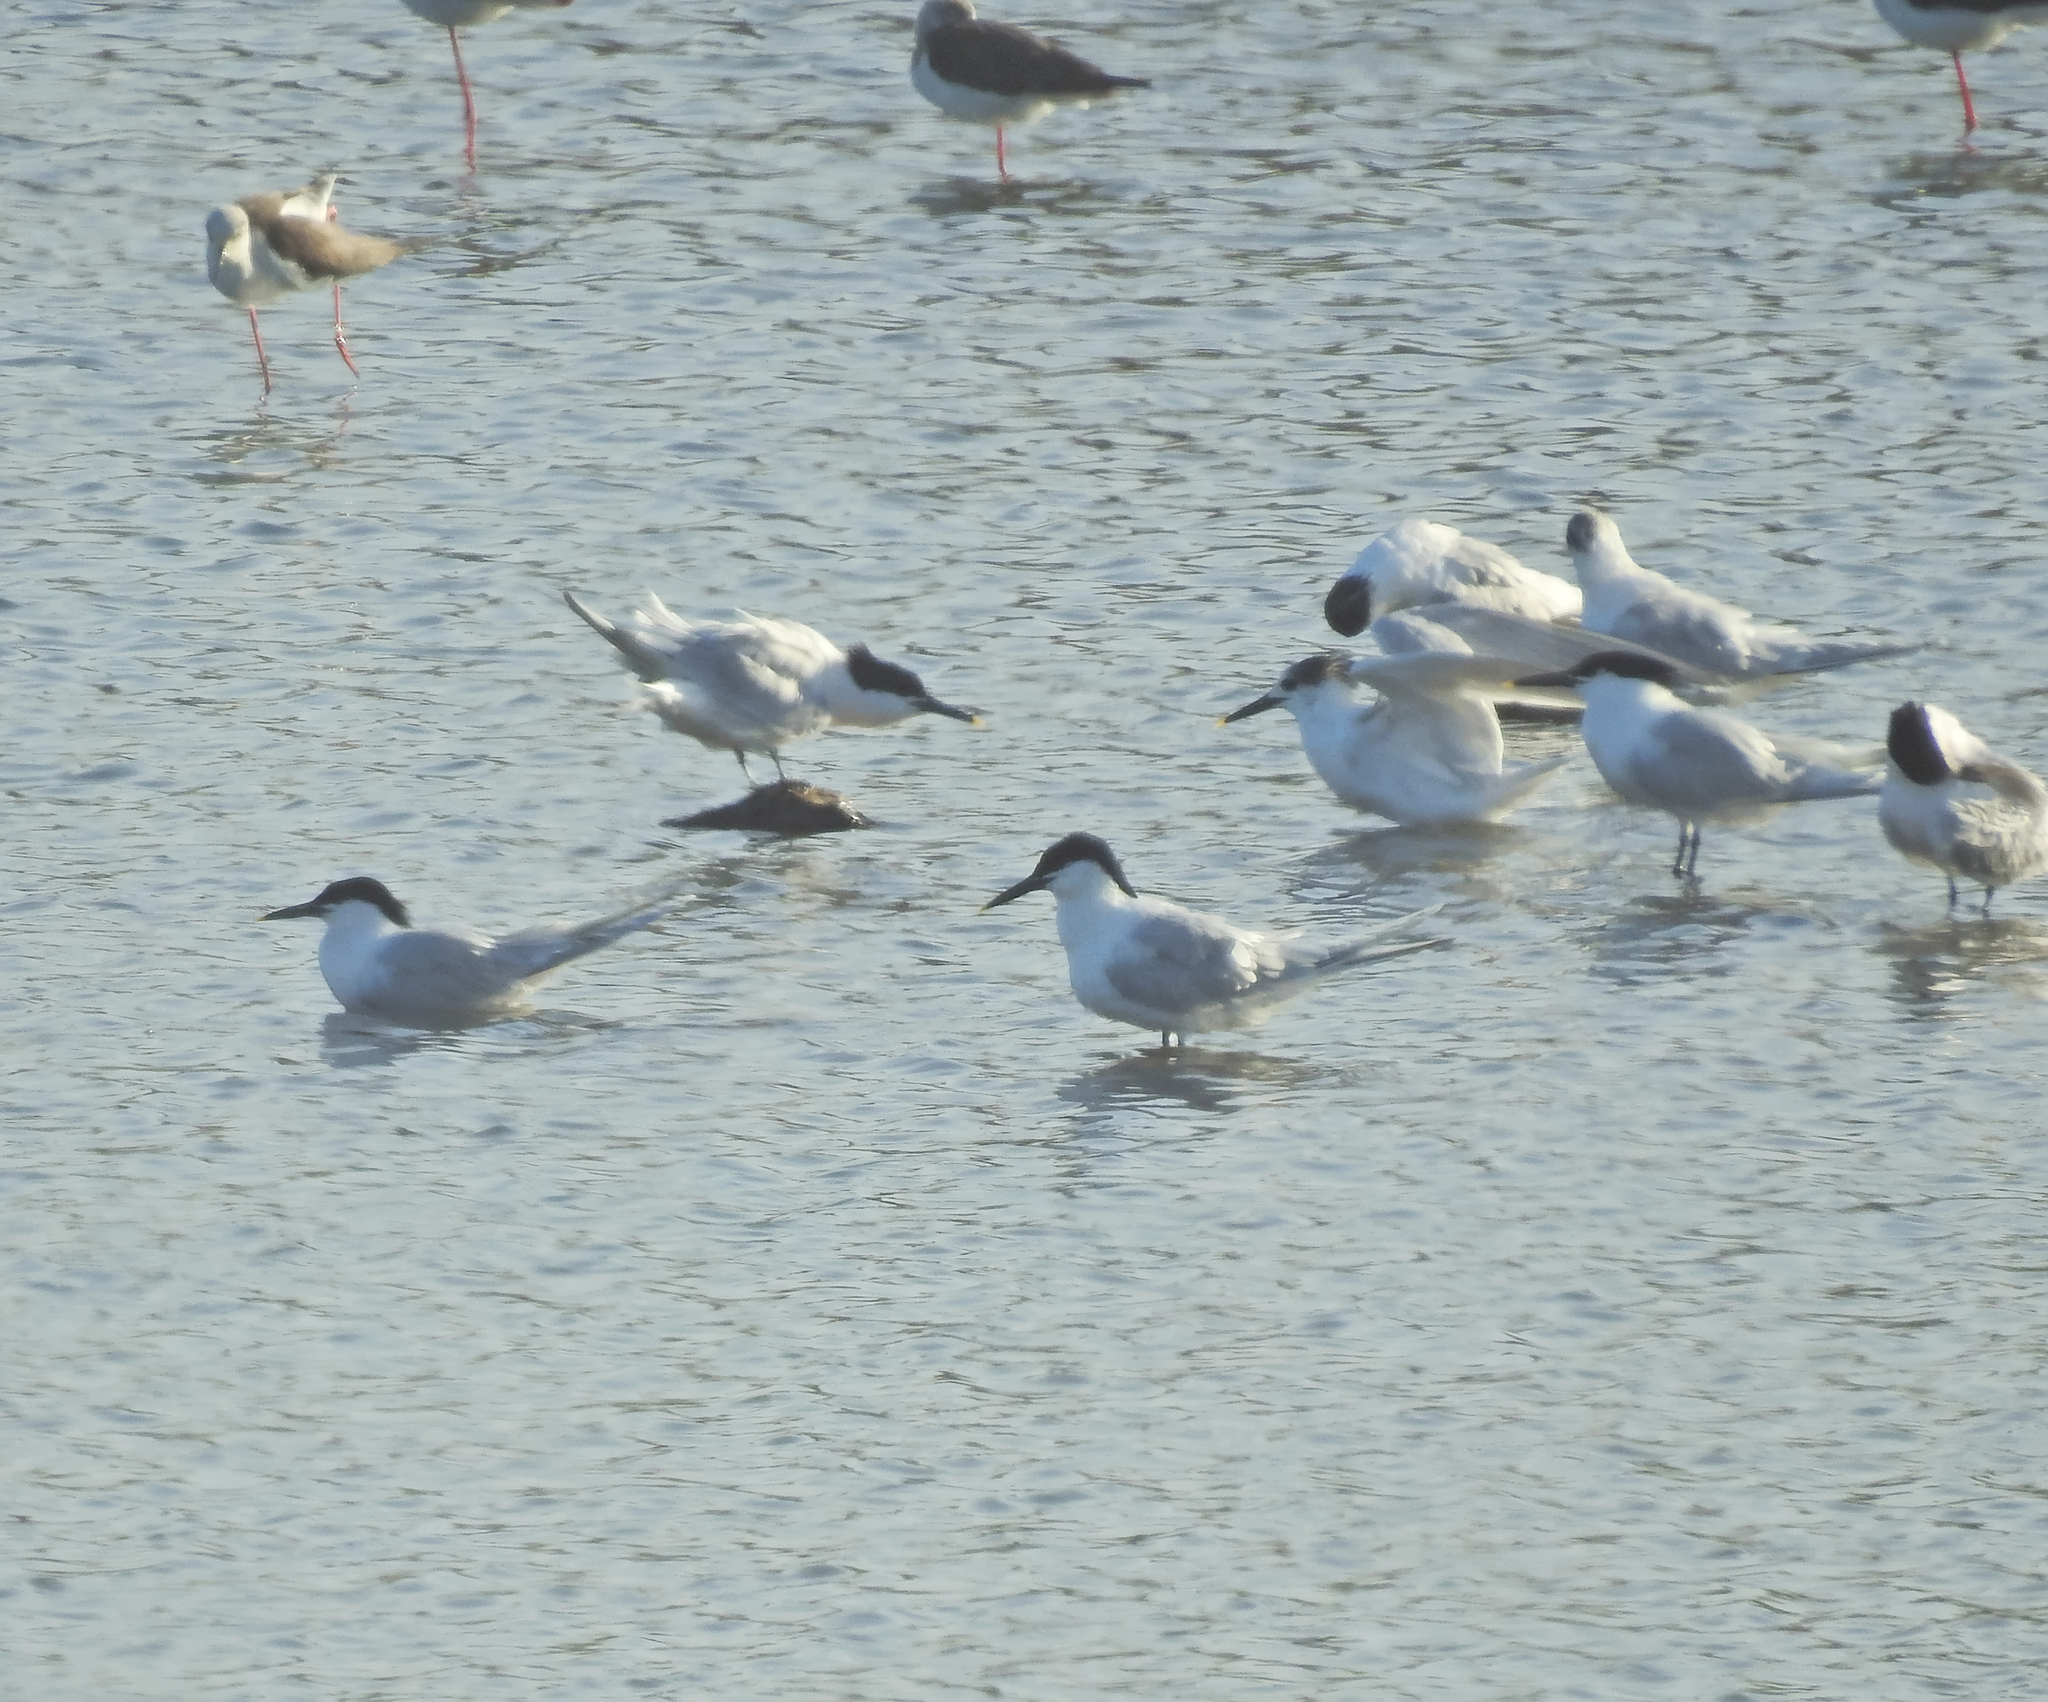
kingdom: Animalia
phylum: Chordata
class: Aves
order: Charadriiformes
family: Laridae
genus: Thalasseus
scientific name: Thalasseus sandvicensis
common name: Sandwich tern
